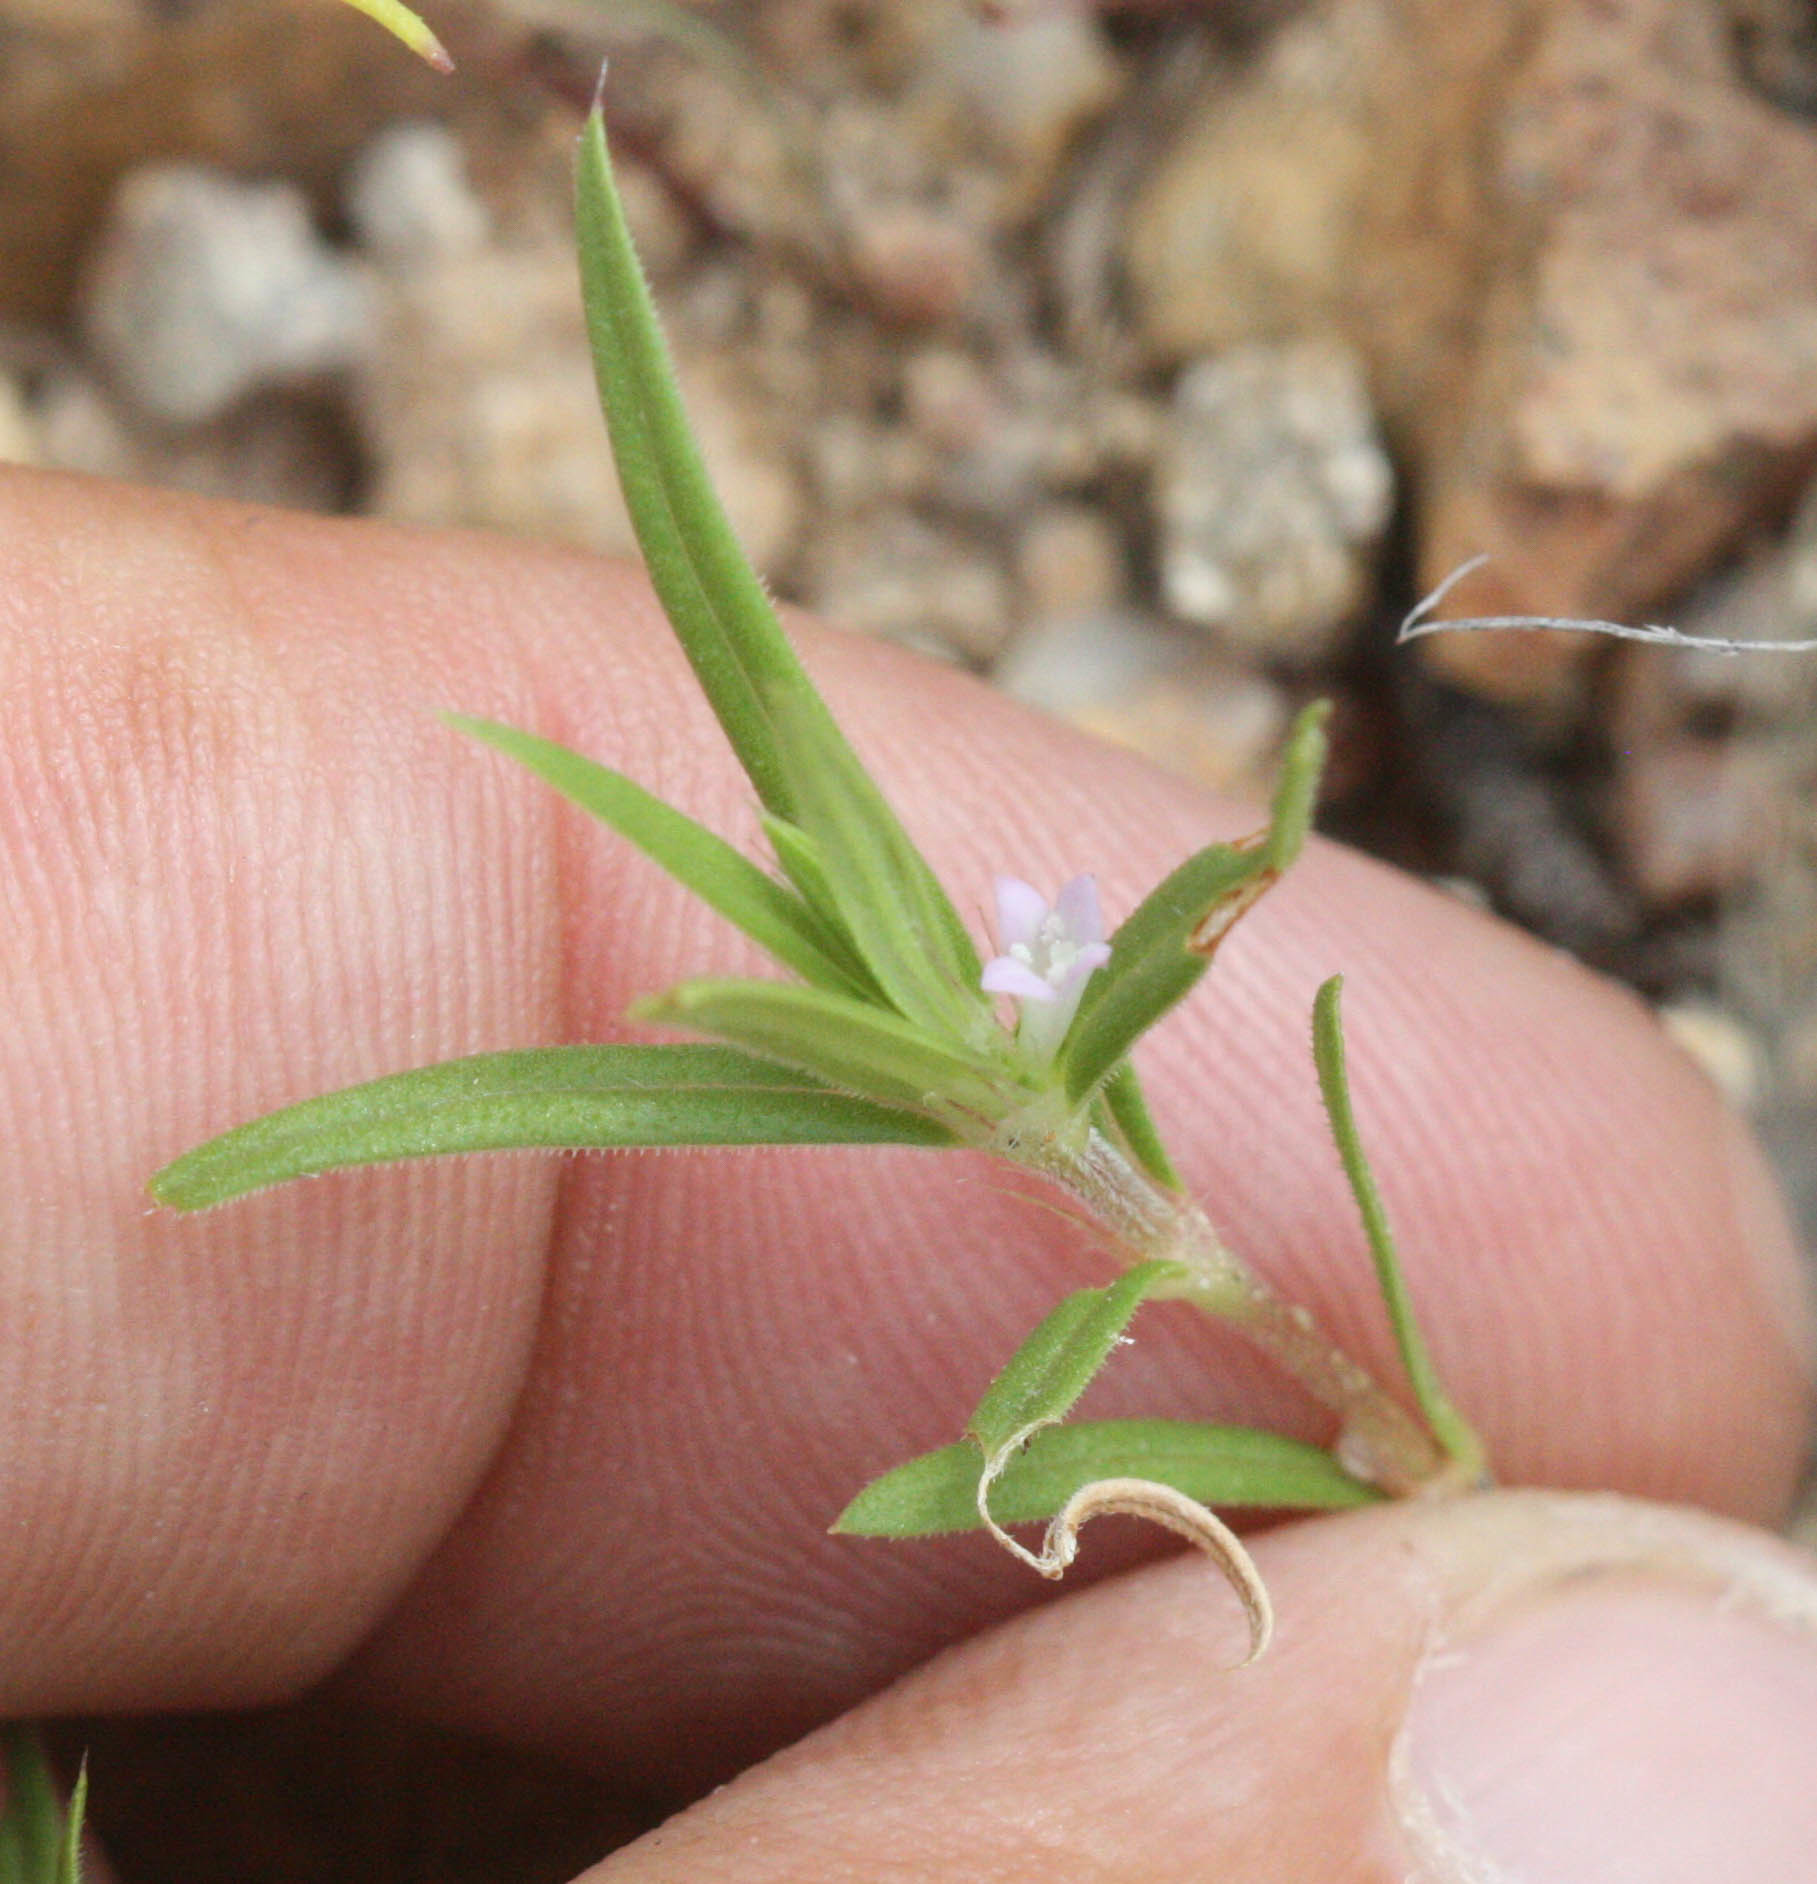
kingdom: Plantae
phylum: Tracheophyta
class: Magnoliopsida
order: Gentianales
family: Rubiaceae
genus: Hexasepalum
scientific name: Hexasepalum teres
